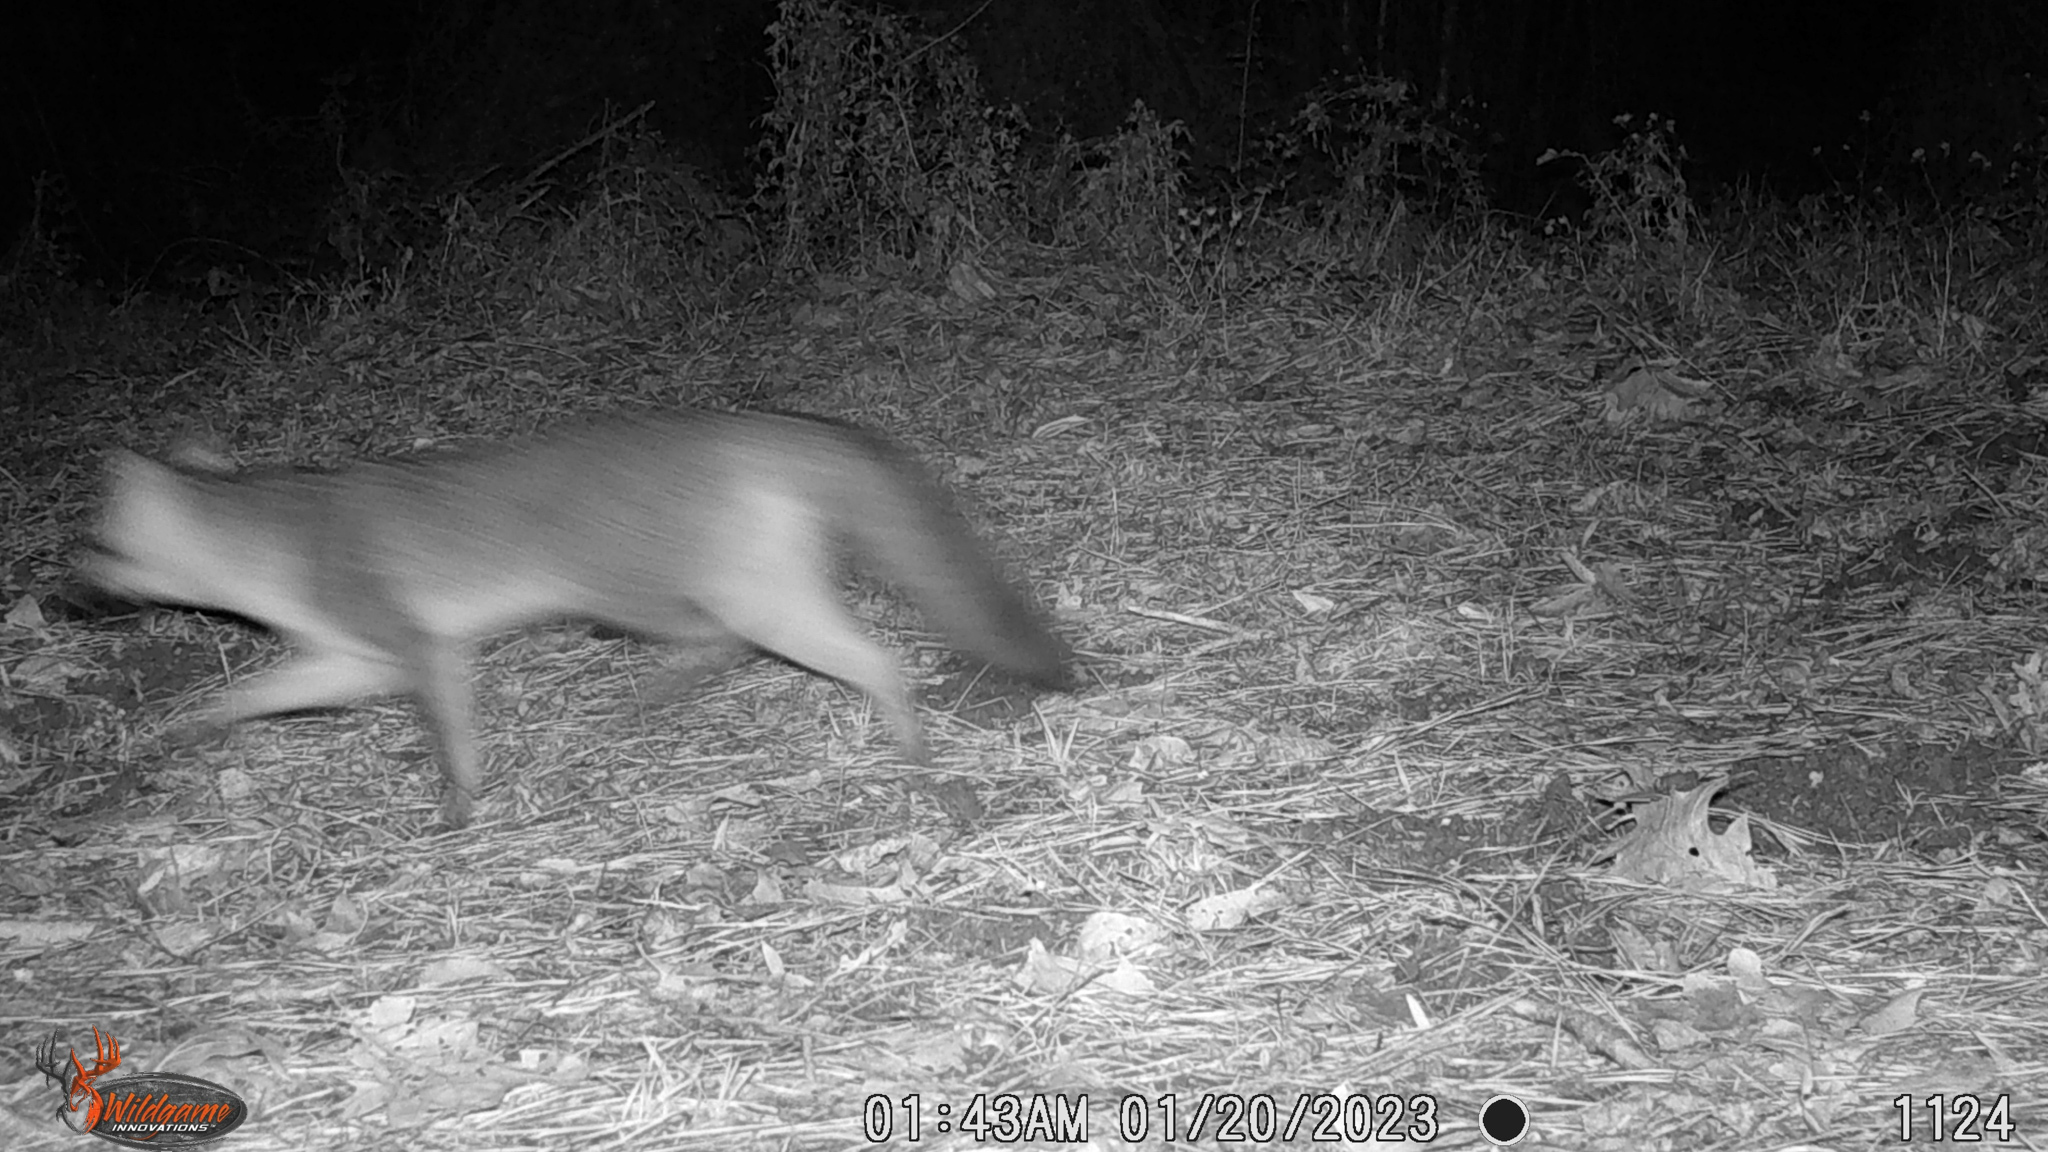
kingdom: Animalia
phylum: Chordata
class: Mammalia
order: Carnivora
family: Canidae
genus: Urocyon
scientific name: Urocyon cinereoargenteus
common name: Gray fox
